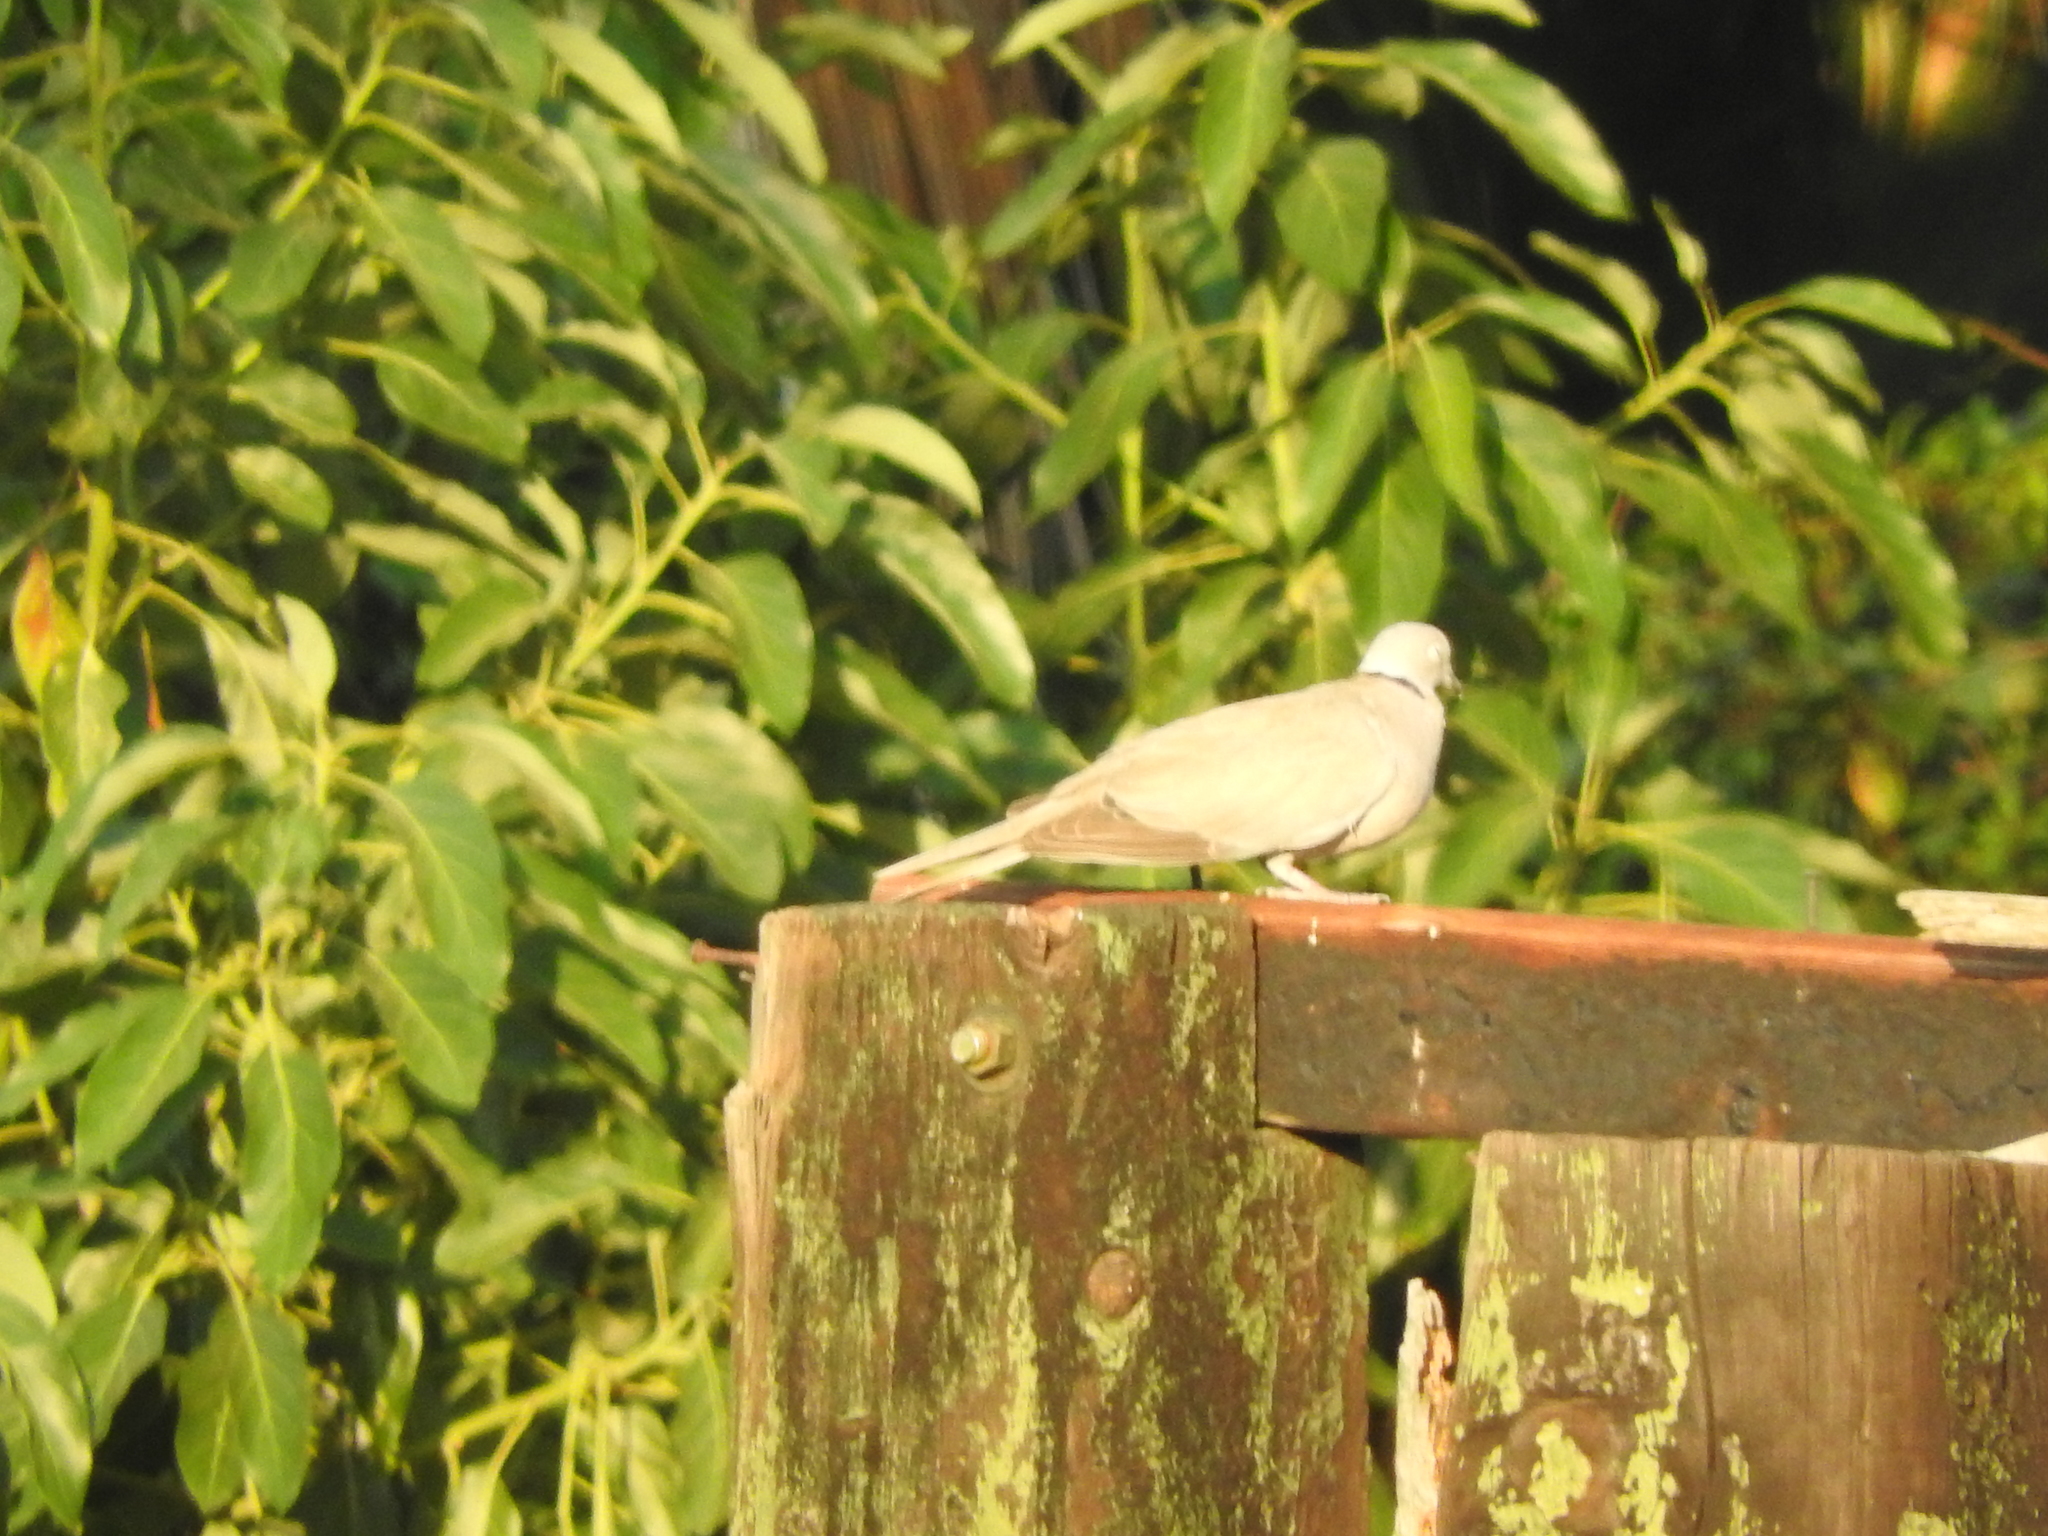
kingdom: Animalia
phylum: Chordata
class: Aves
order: Columbiformes
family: Columbidae
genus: Streptopelia
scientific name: Streptopelia decaocto
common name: Eurasian collared dove
